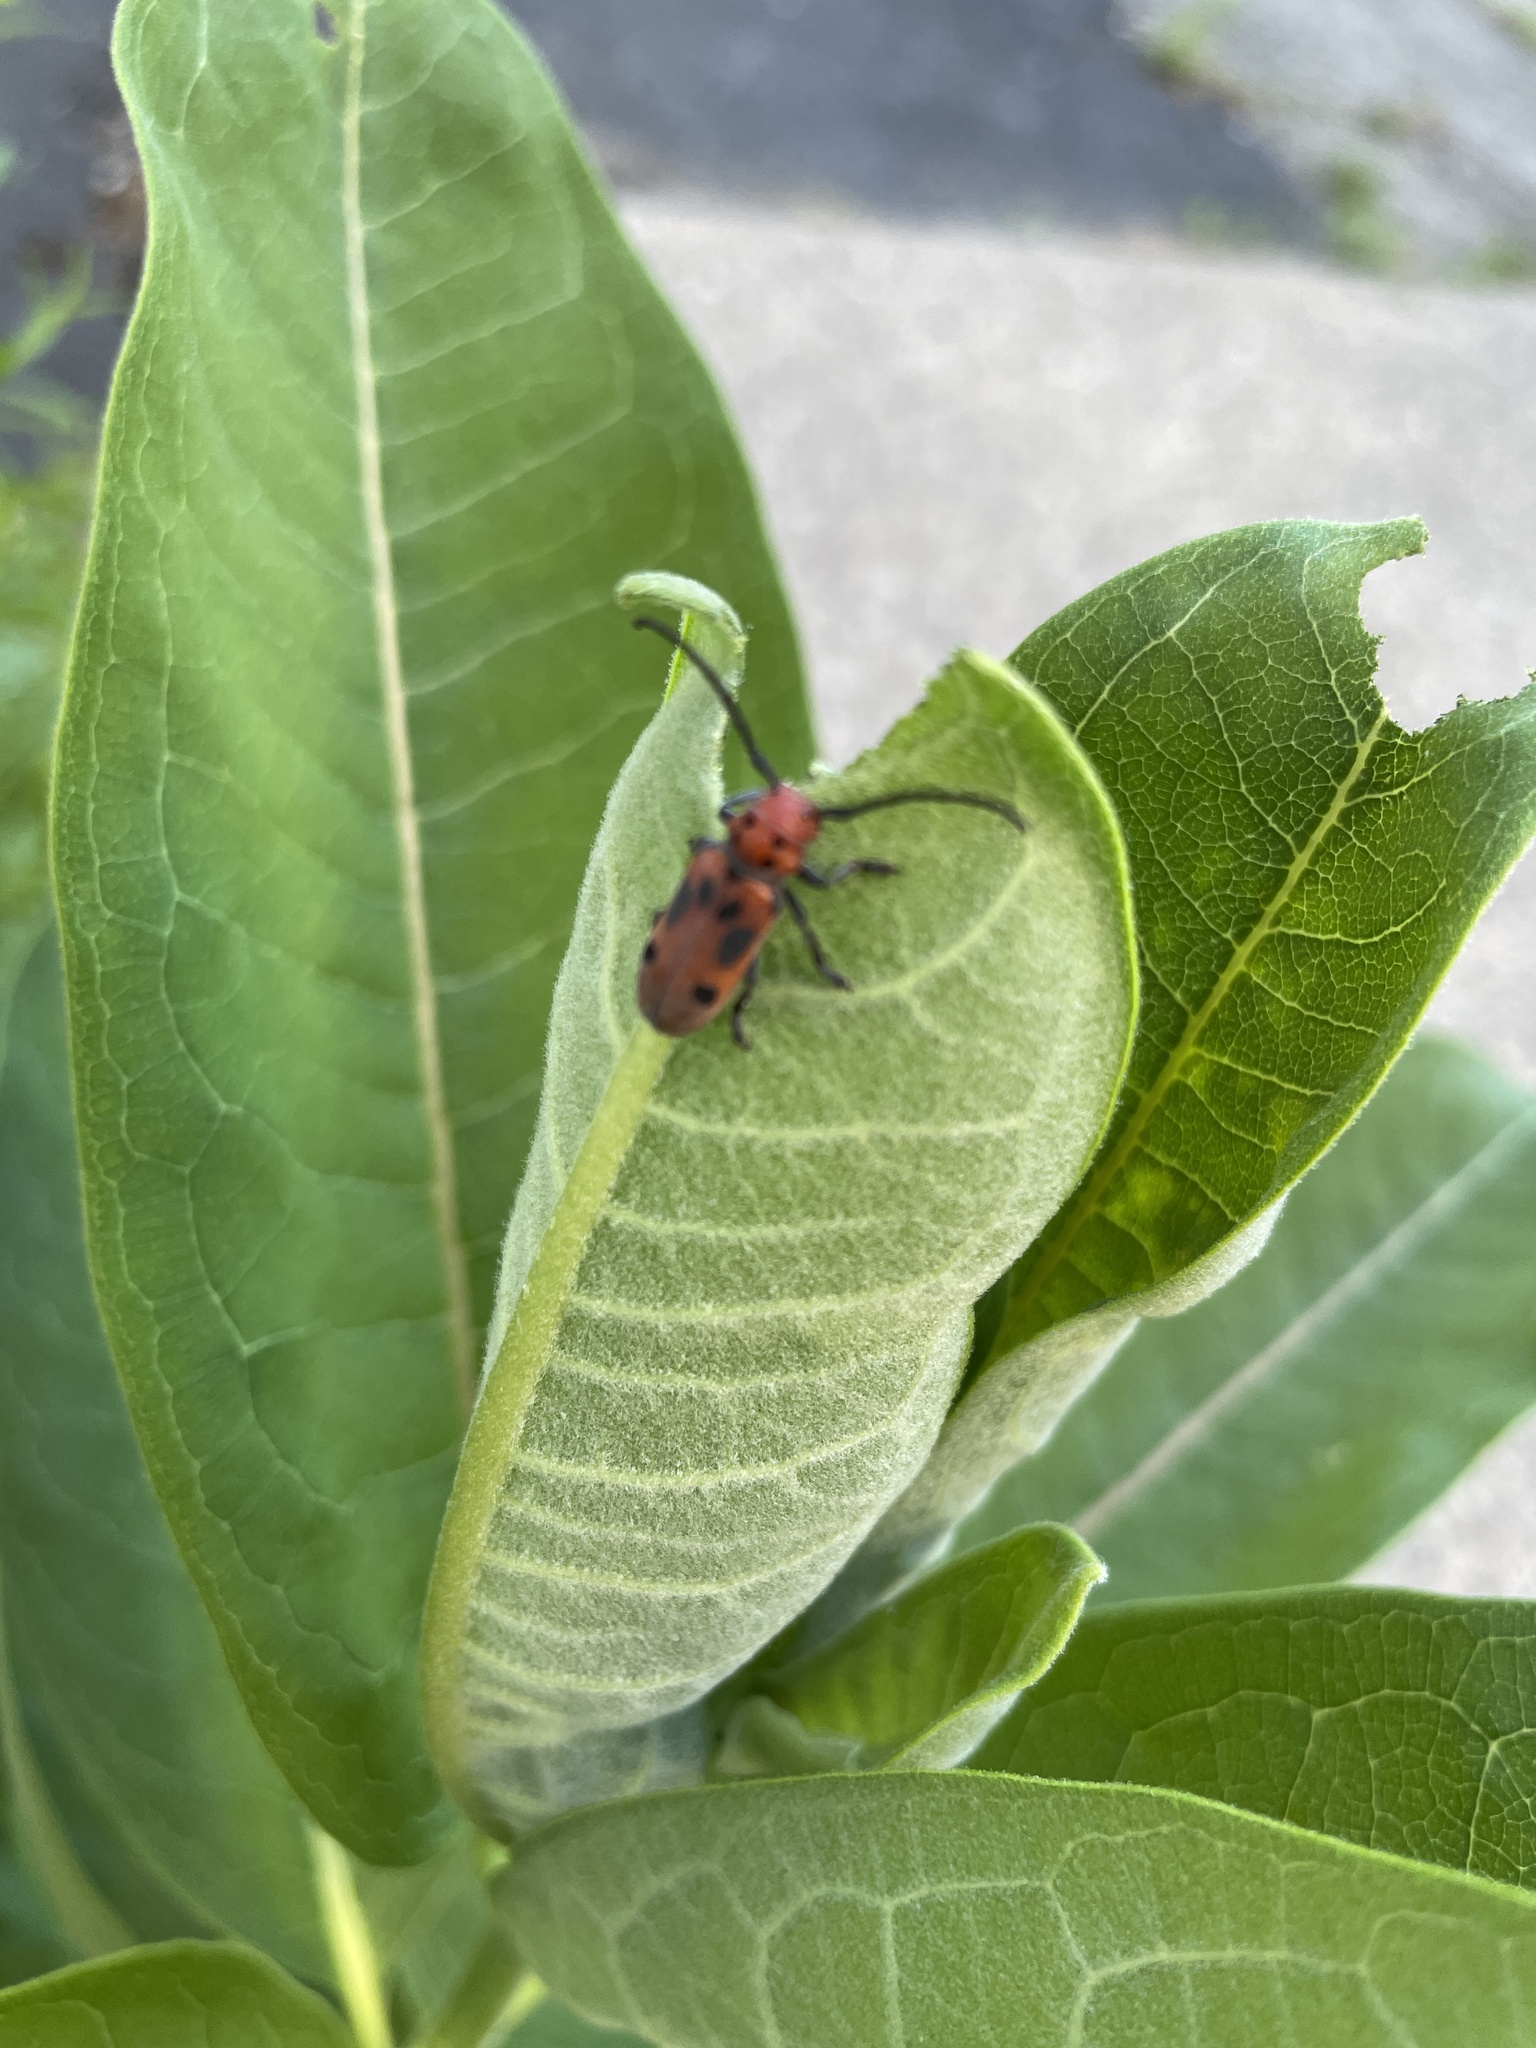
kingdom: Animalia
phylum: Arthropoda
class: Insecta
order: Coleoptera
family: Cerambycidae
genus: Tetraopes
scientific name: Tetraopes tetrophthalmus
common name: Red milkweed beetle
